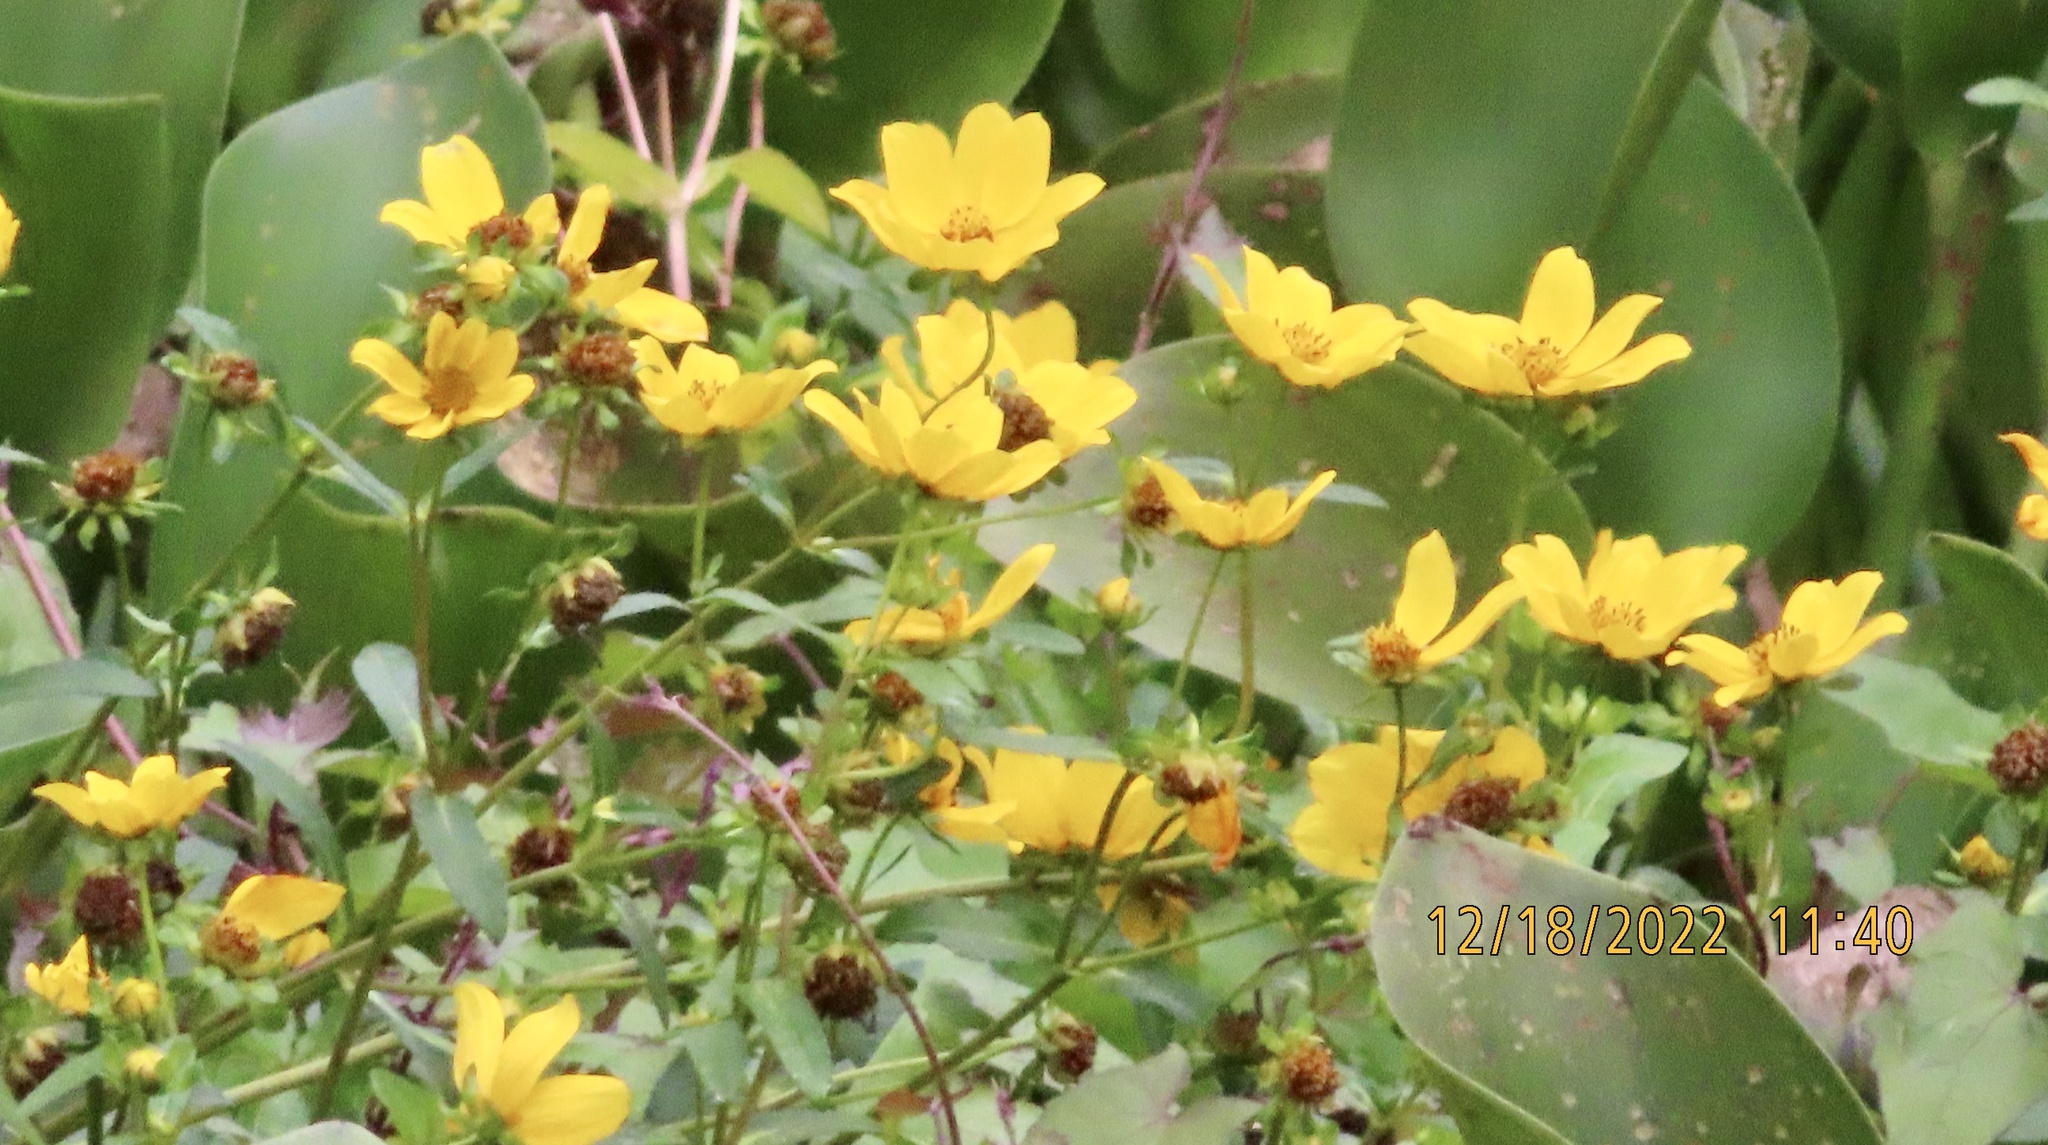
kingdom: Plantae
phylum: Tracheophyta
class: Magnoliopsida
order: Asterales
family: Asteraceae
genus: Bidens
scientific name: Bidens laevis
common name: Larger bur-marigold
